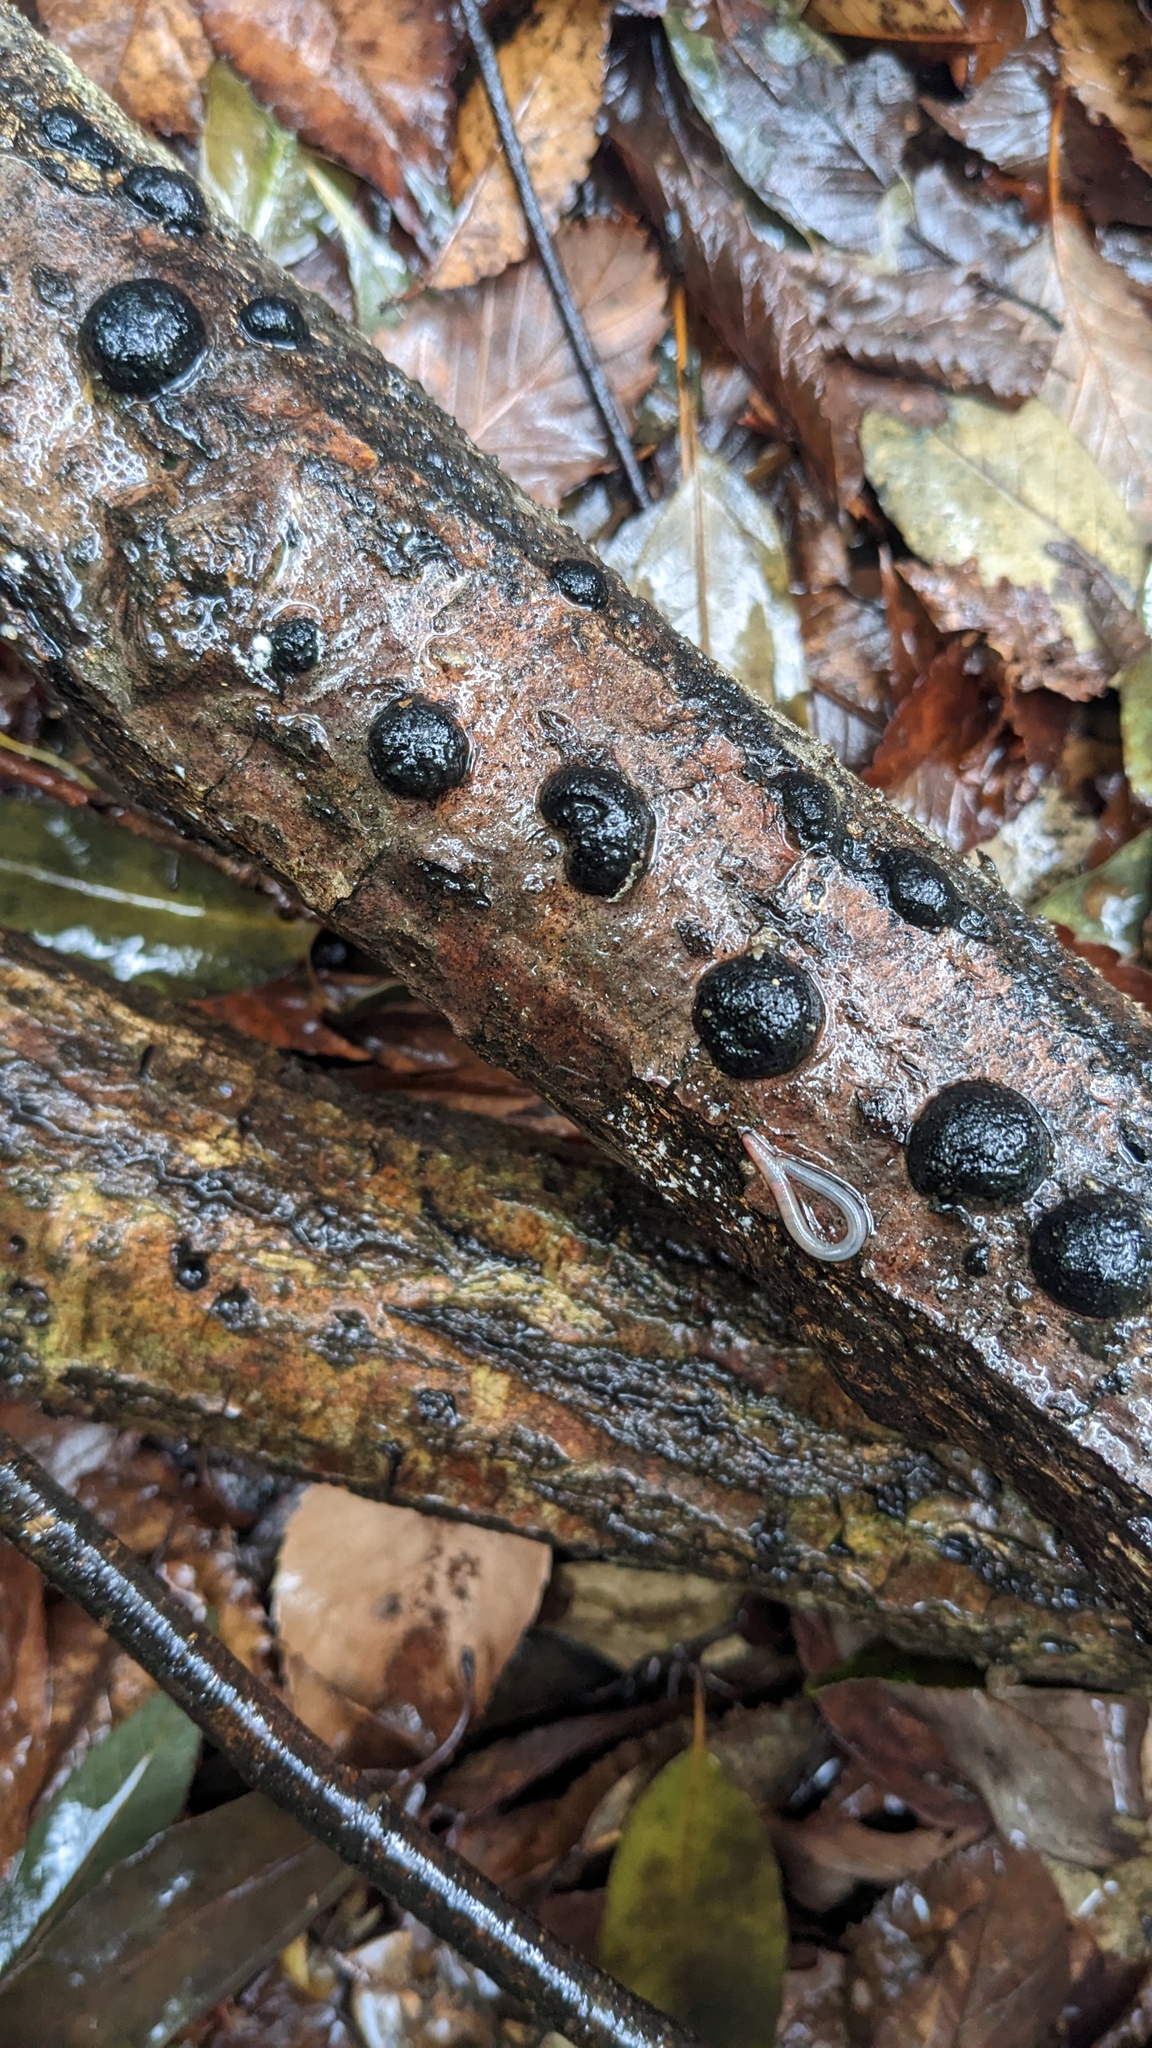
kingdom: Fungi
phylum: Ascomycota
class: Sordariomycetes
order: Xylariales
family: Hypoxylaceae
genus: Annulohypoxylon
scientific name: Annulohypoxylon truncatum
